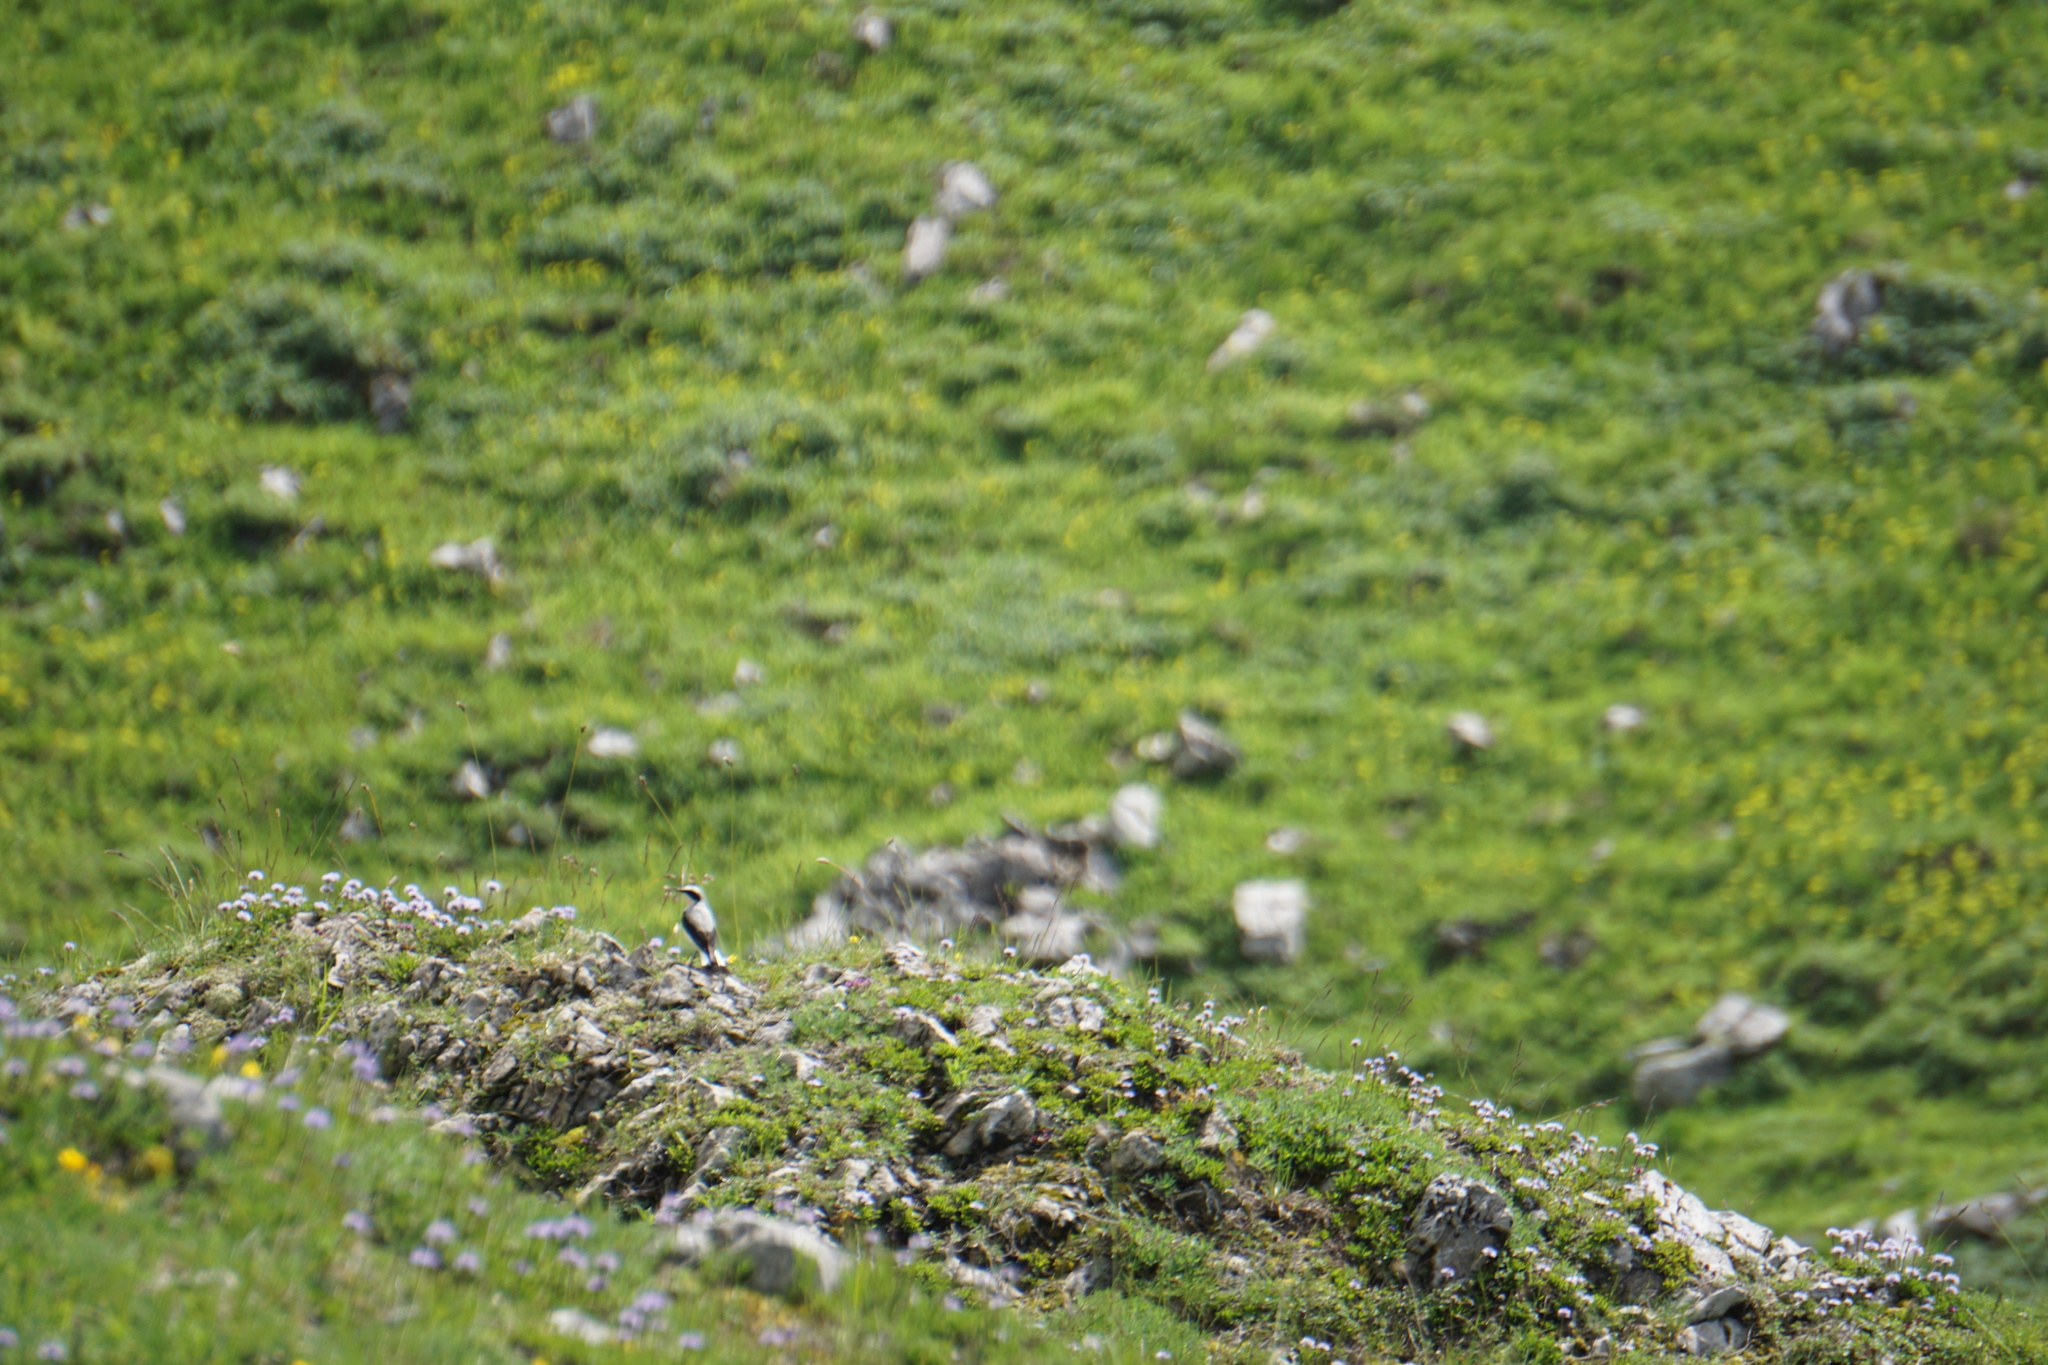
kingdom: Animalia
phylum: Chordata
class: Aves
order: Passeriformes
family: Muscicapidae
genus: Oenanthe
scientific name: Oenanthe oenanthe
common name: Northern wheatear
